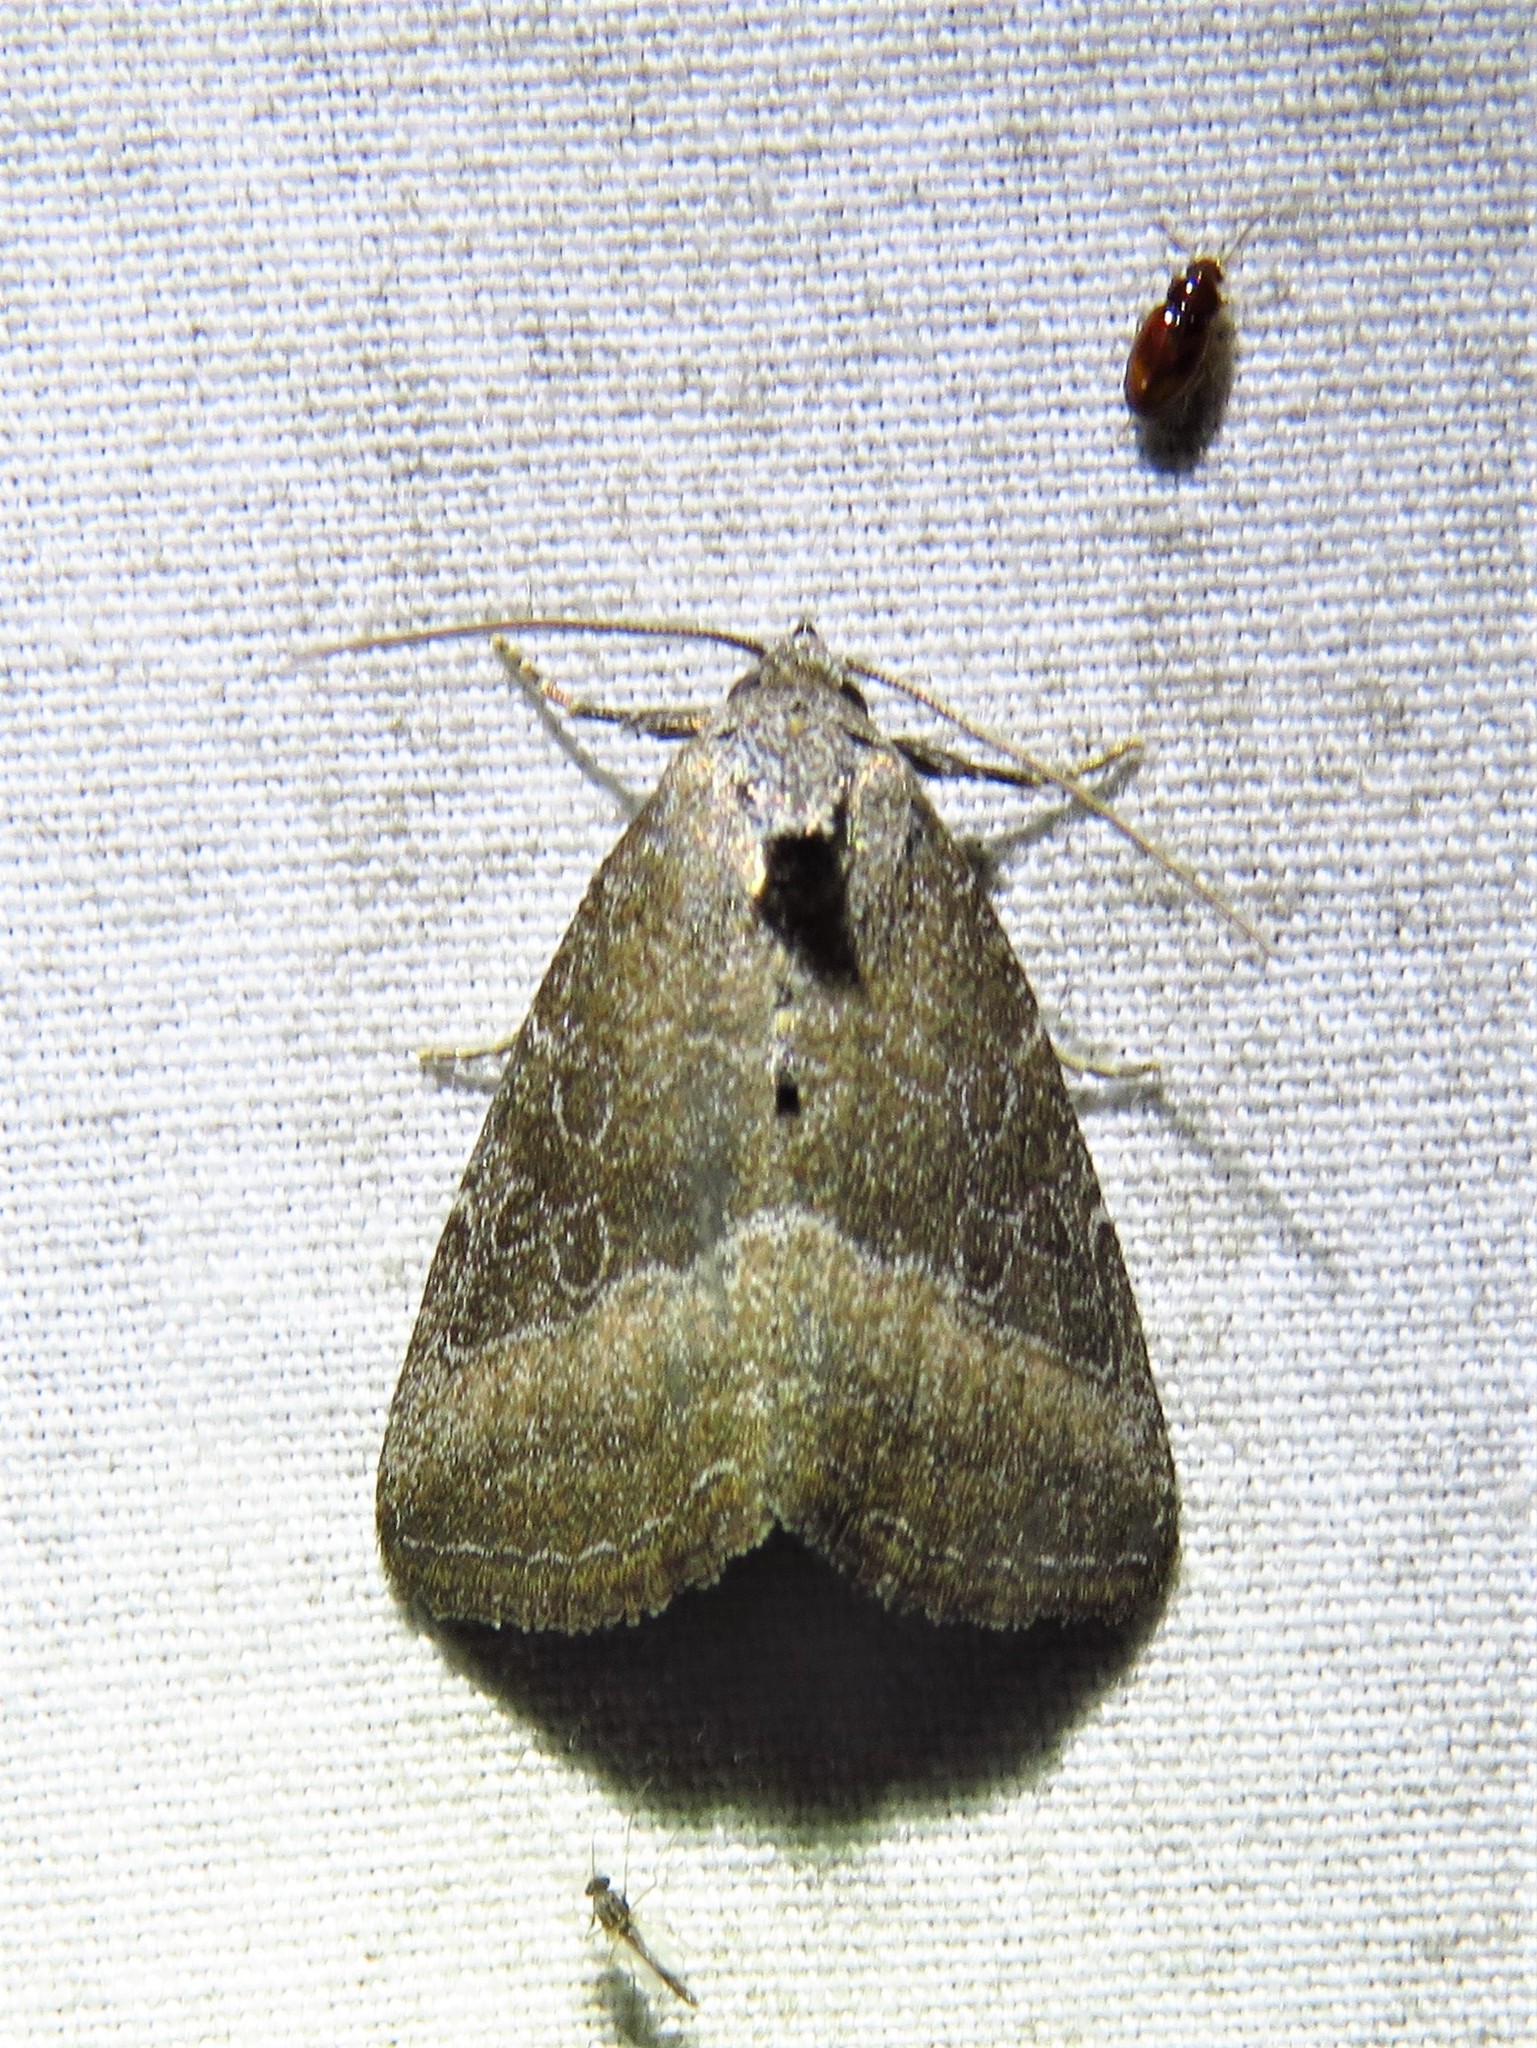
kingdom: Animalia
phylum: Arthropoda
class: Insecta
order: Lepidoptera
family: Noctuidae
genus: Ogdoconta
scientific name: Ogdoconta cinereola
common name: Common pinkband
